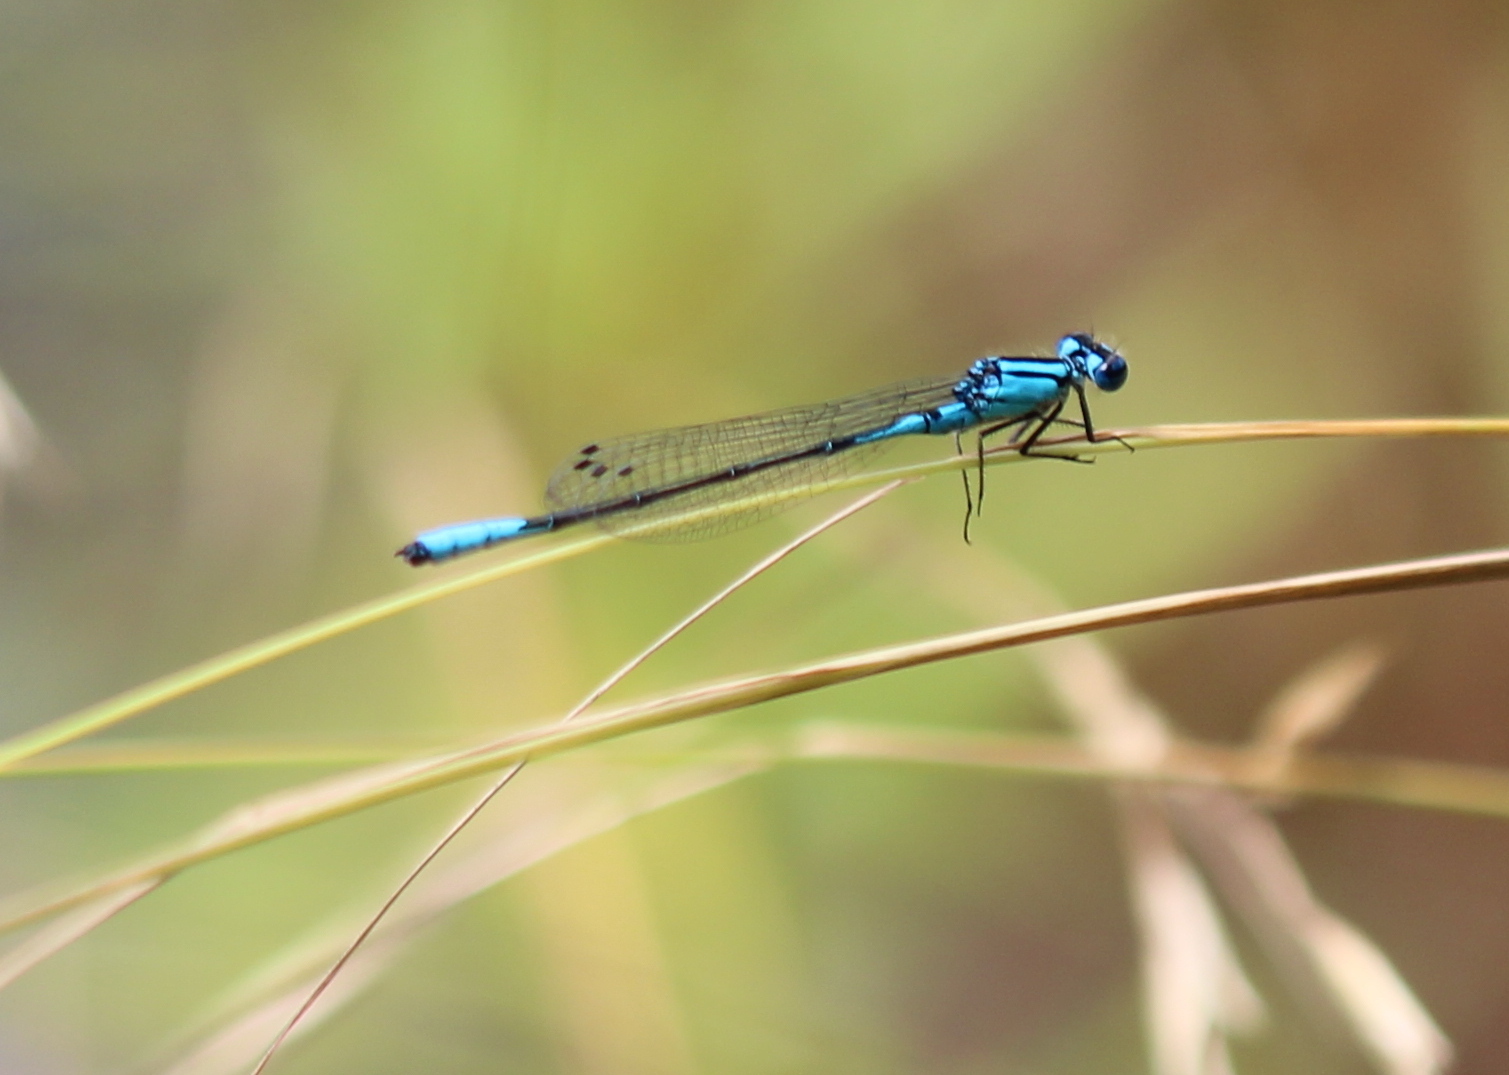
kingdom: Animalia
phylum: Arthropoda
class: Insecta
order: Odonata
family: Coenagrionidae
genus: Enallagma
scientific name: Enallagma aspersum
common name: Azure bluet
